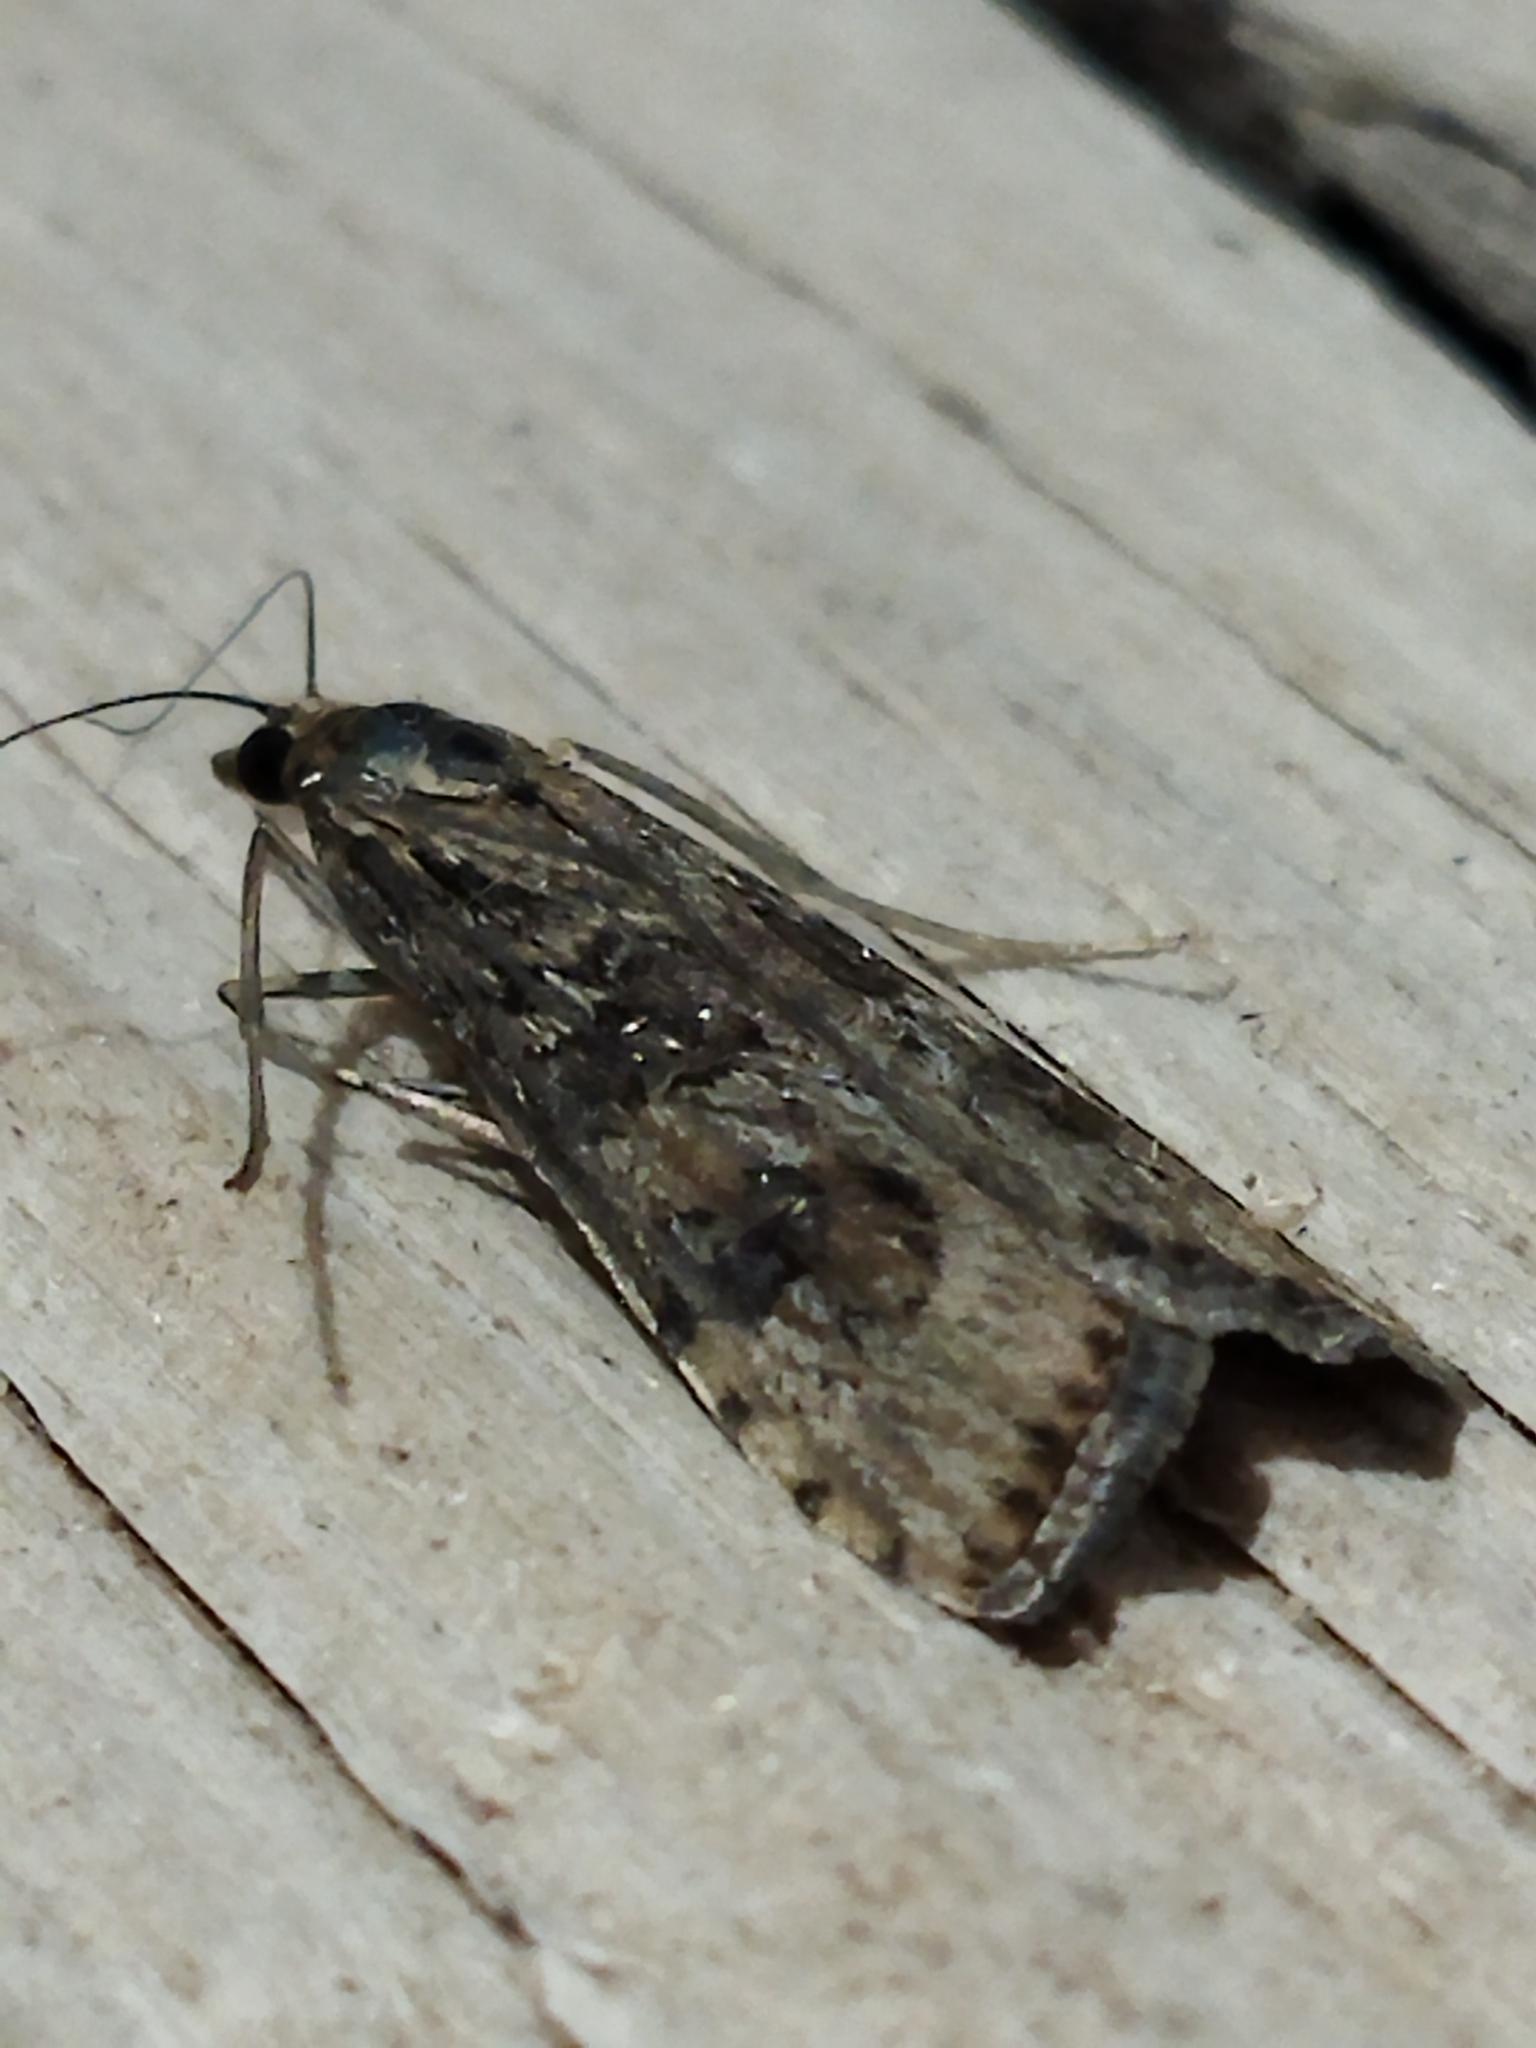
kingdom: Animalia
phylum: Arthropoda
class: Insecta
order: Lepidoptera
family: Crambidae
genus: Nomophila
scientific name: Nomophila noctuella
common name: Rush veneer
